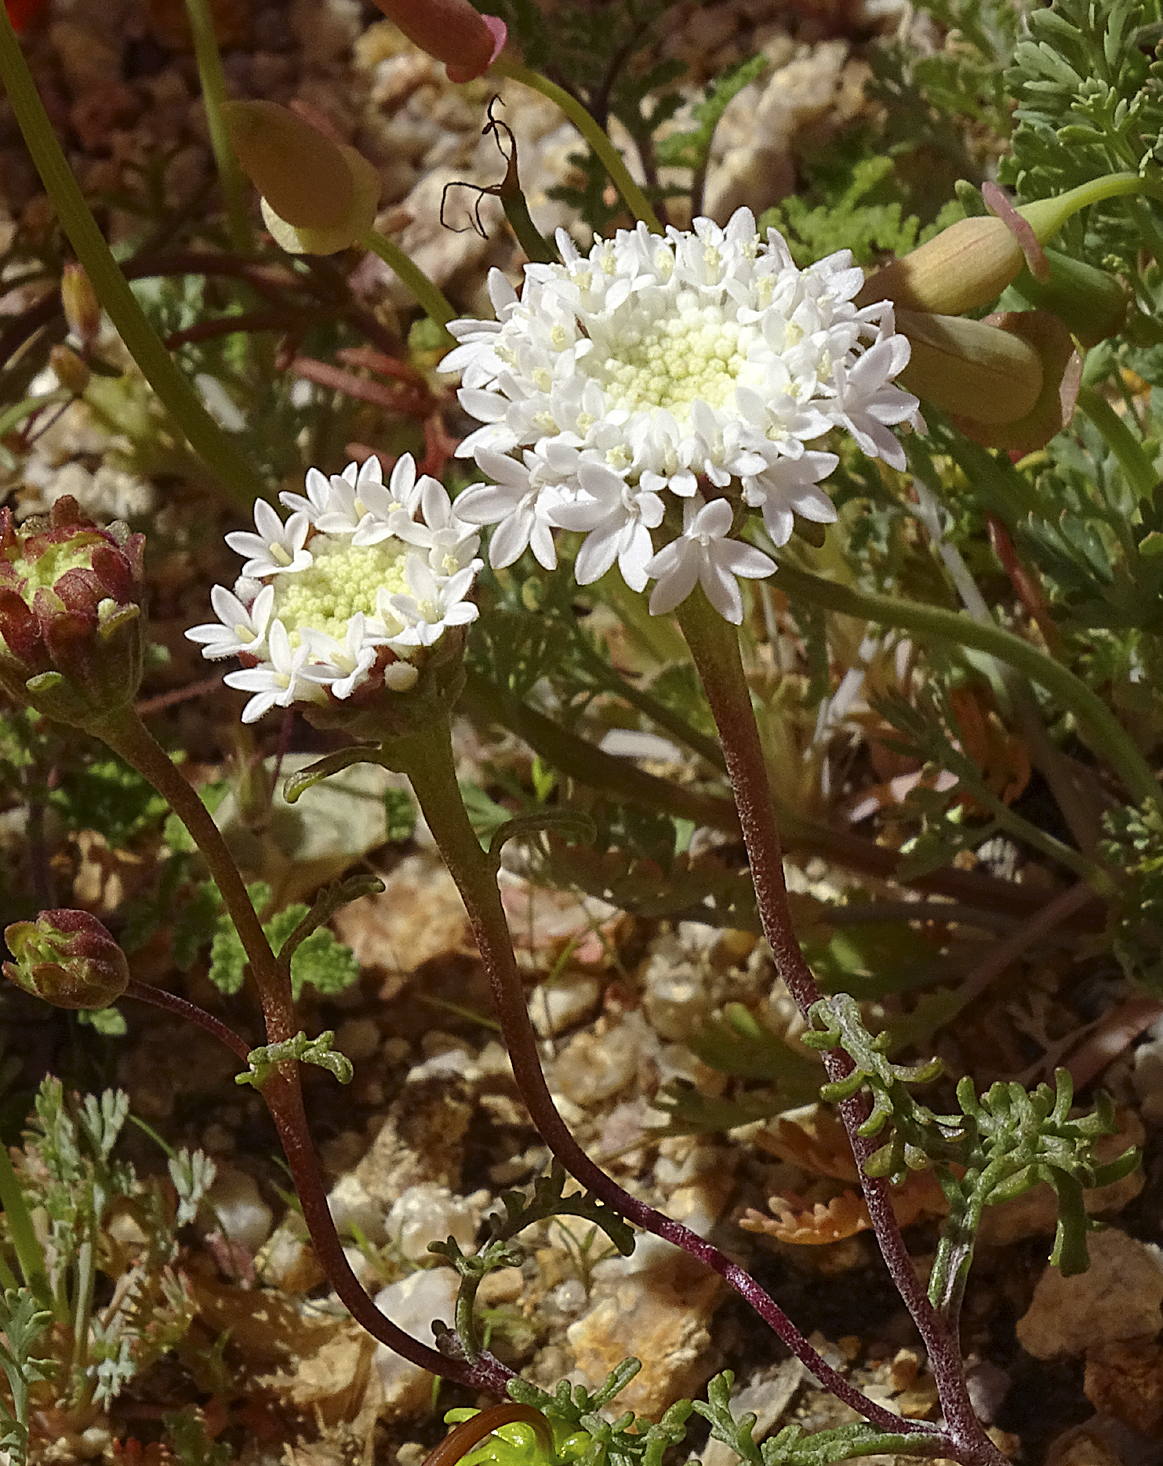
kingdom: Plantae
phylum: Tracheophyta
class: Magnoliopsida
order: Asterales
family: Asteraceae
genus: Chaenactis
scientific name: Chaenactis stevioides
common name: Desert pincushion
